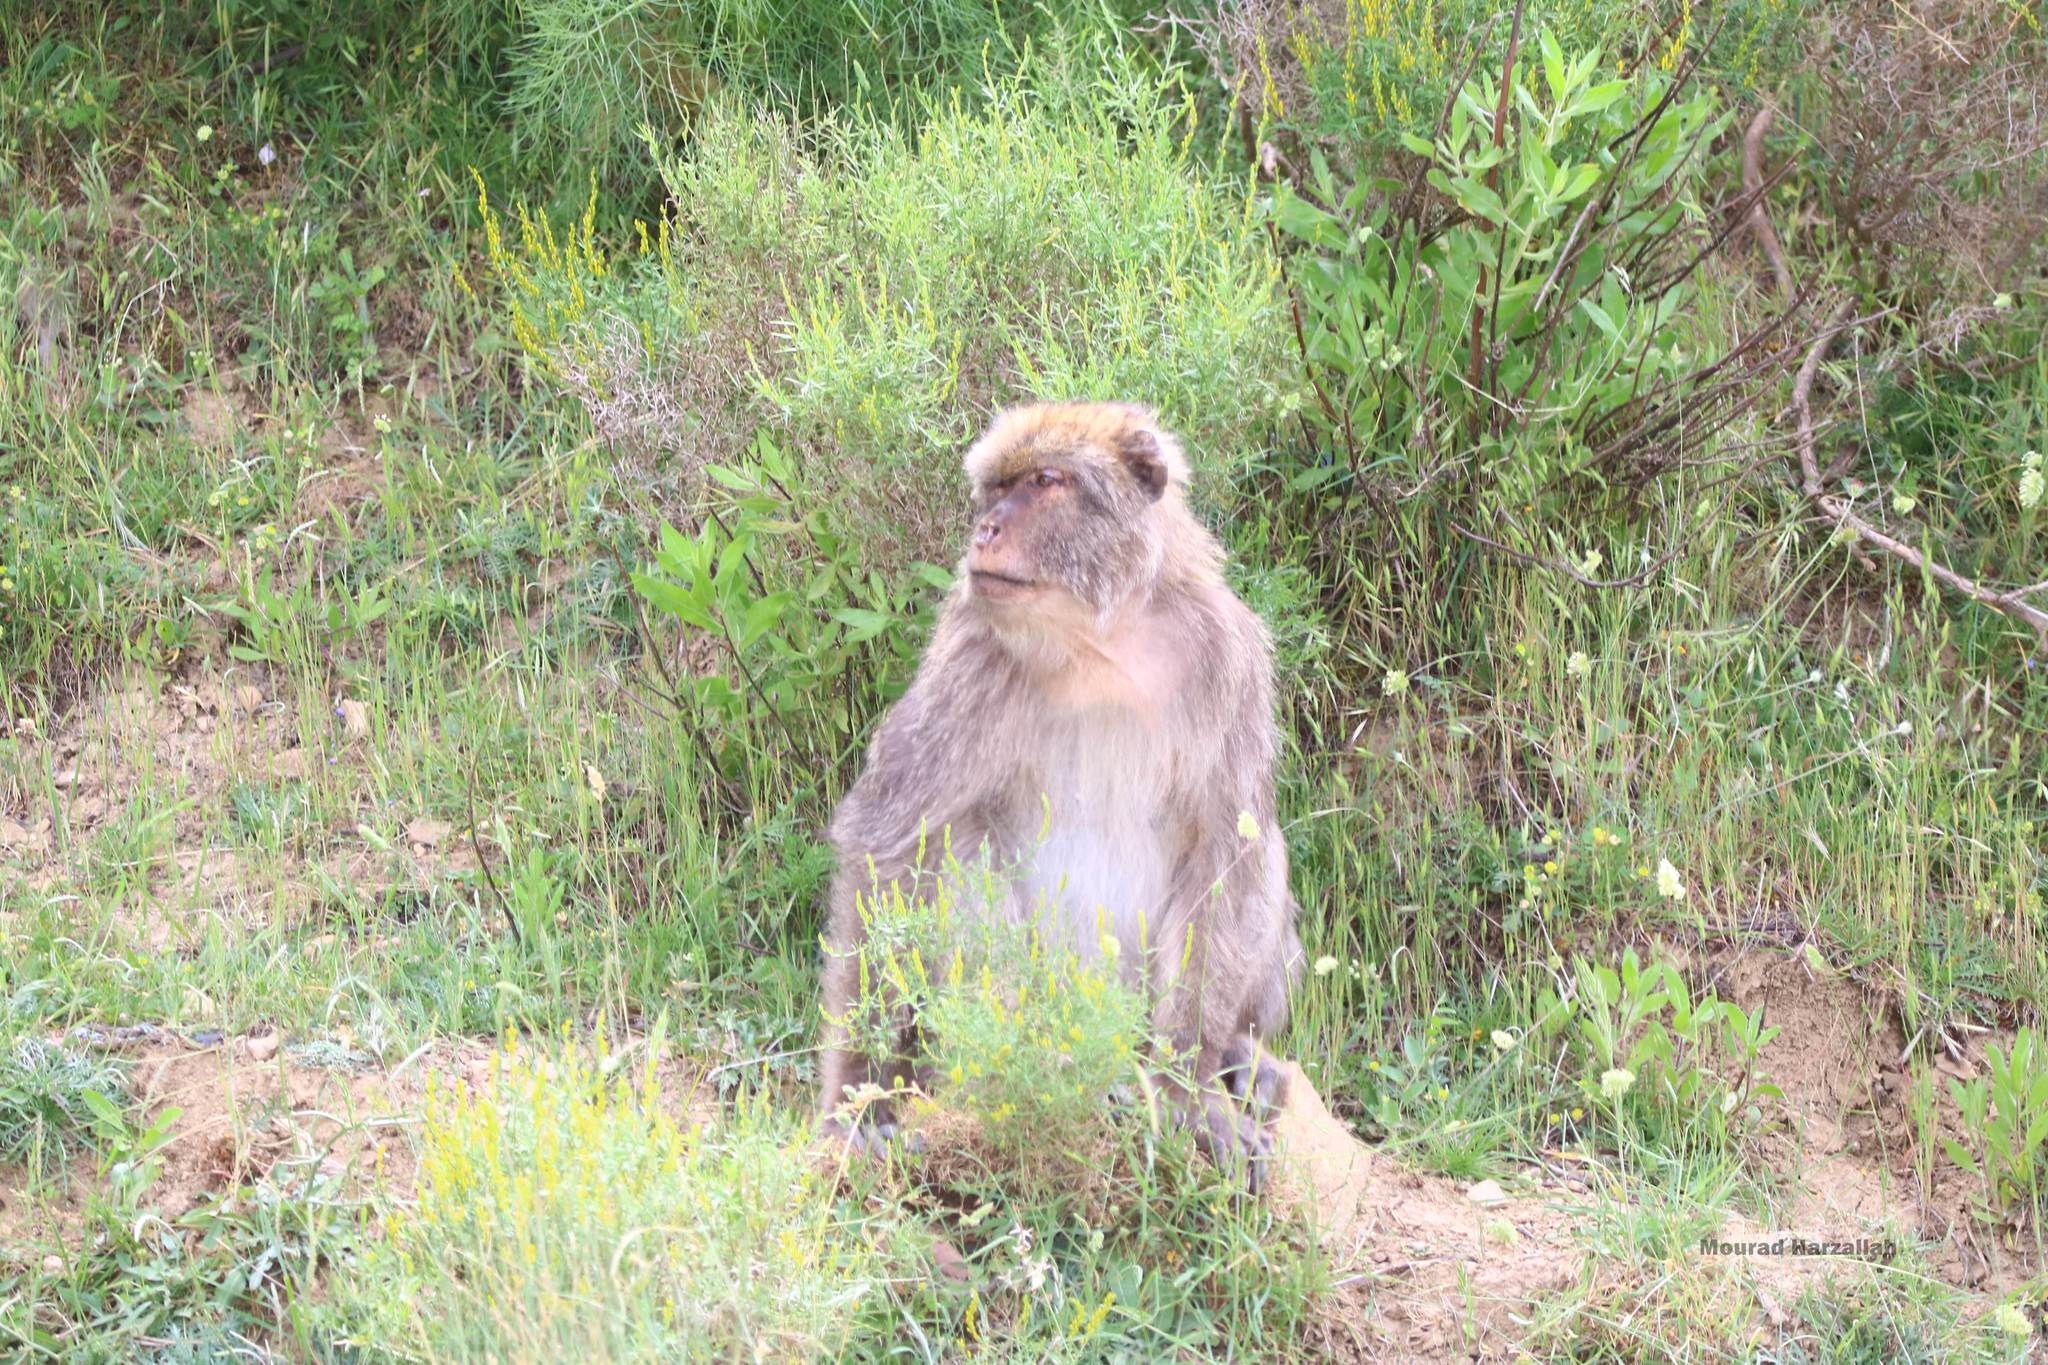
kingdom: Animalia
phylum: Chordata
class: Mammalia
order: Primates
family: Cercopithecidae
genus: Macaca
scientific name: Macaca sylvanus
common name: Barbary macaque
